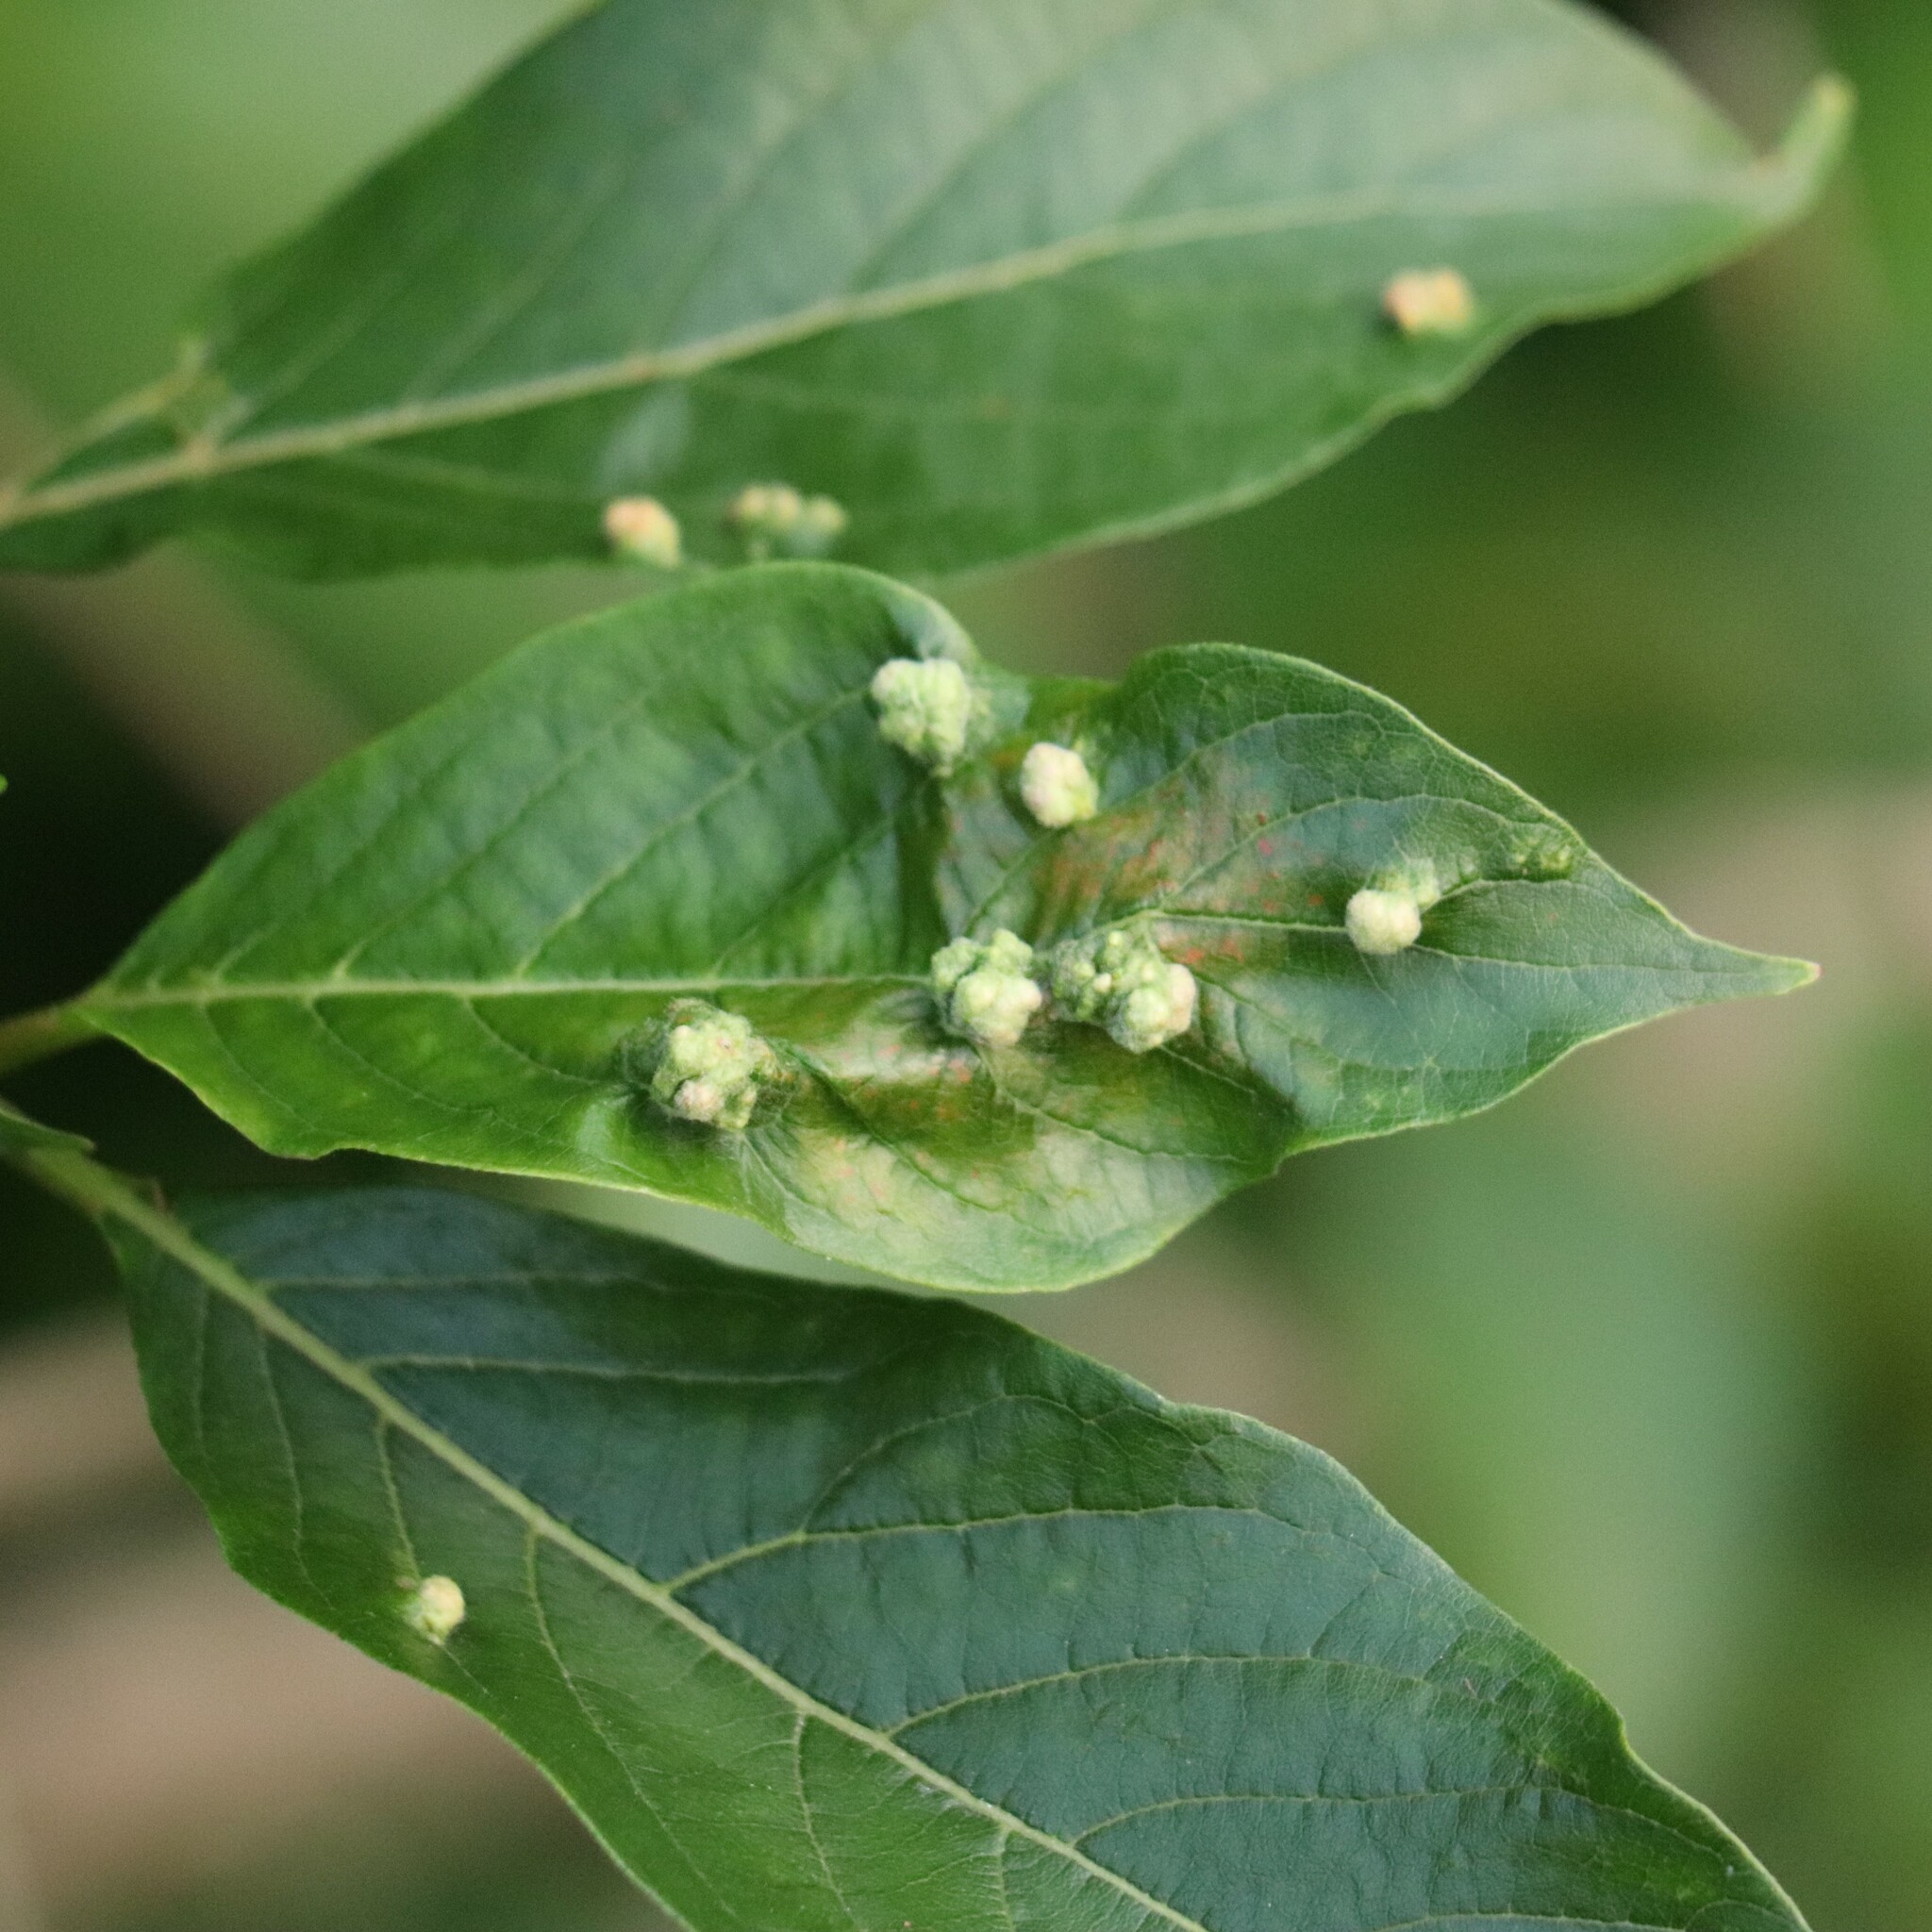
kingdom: Animalia
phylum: Arthropoda
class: Arachnida
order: Trombidiformes
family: Eriophyidae
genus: Aceria
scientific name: Aceria
